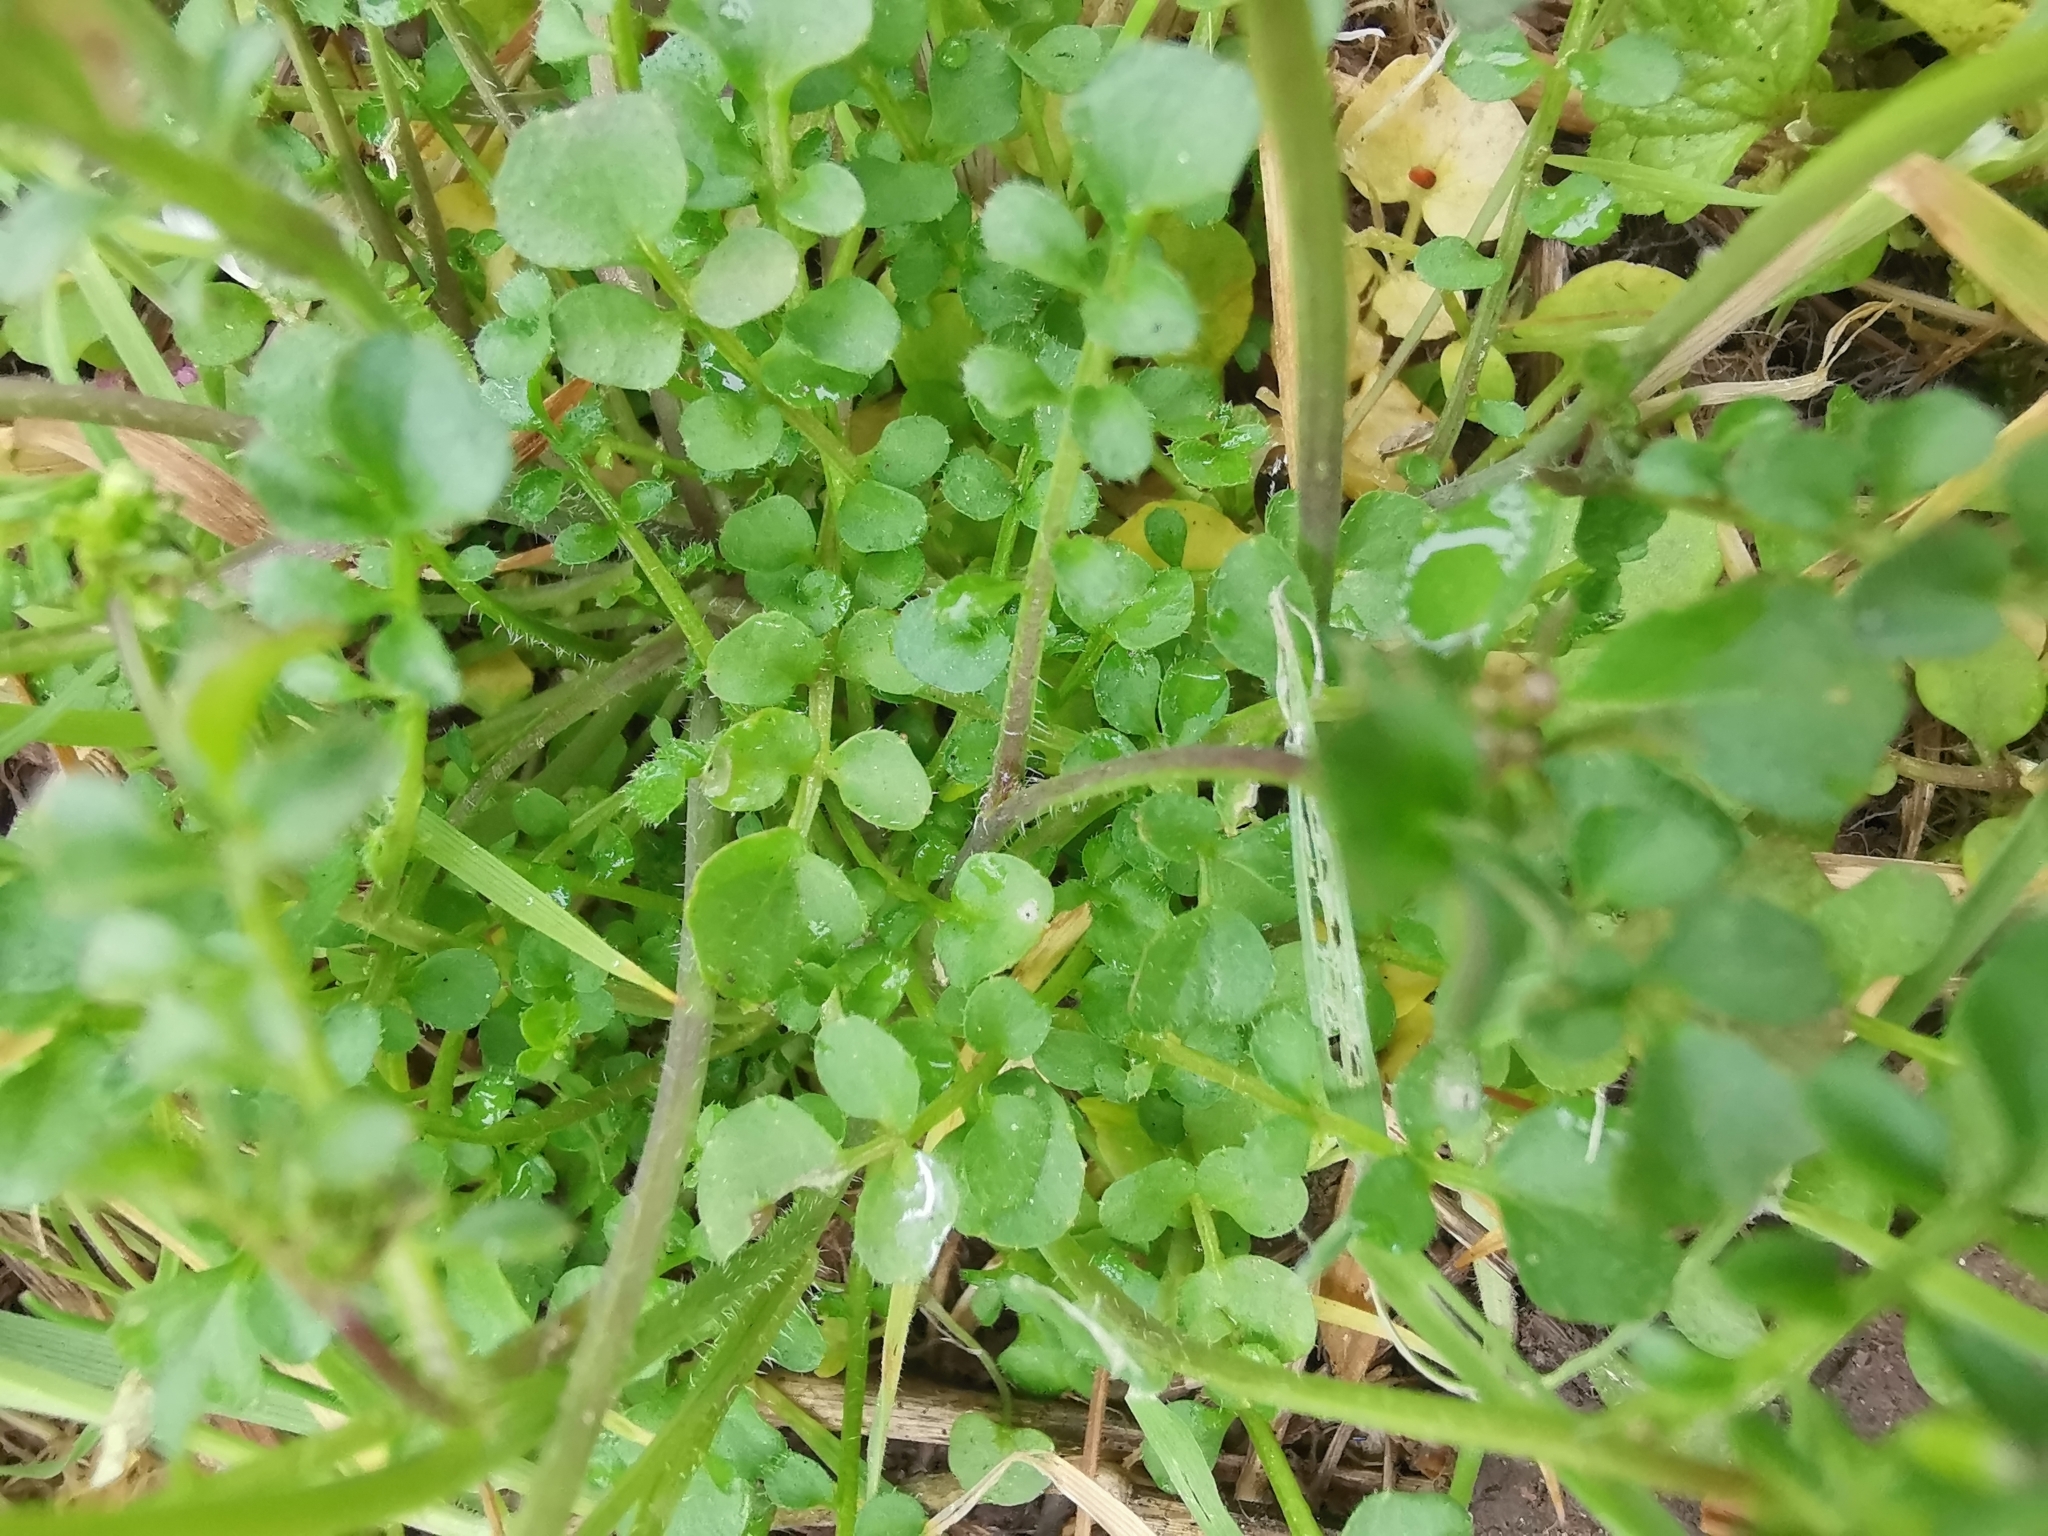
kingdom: Plantae
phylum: Tracheophyta
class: Magnoliopsida
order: Brassicales
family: Brassicaceae
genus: Cardamine
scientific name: Cardamine hirsuta
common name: Hairy bittercress
